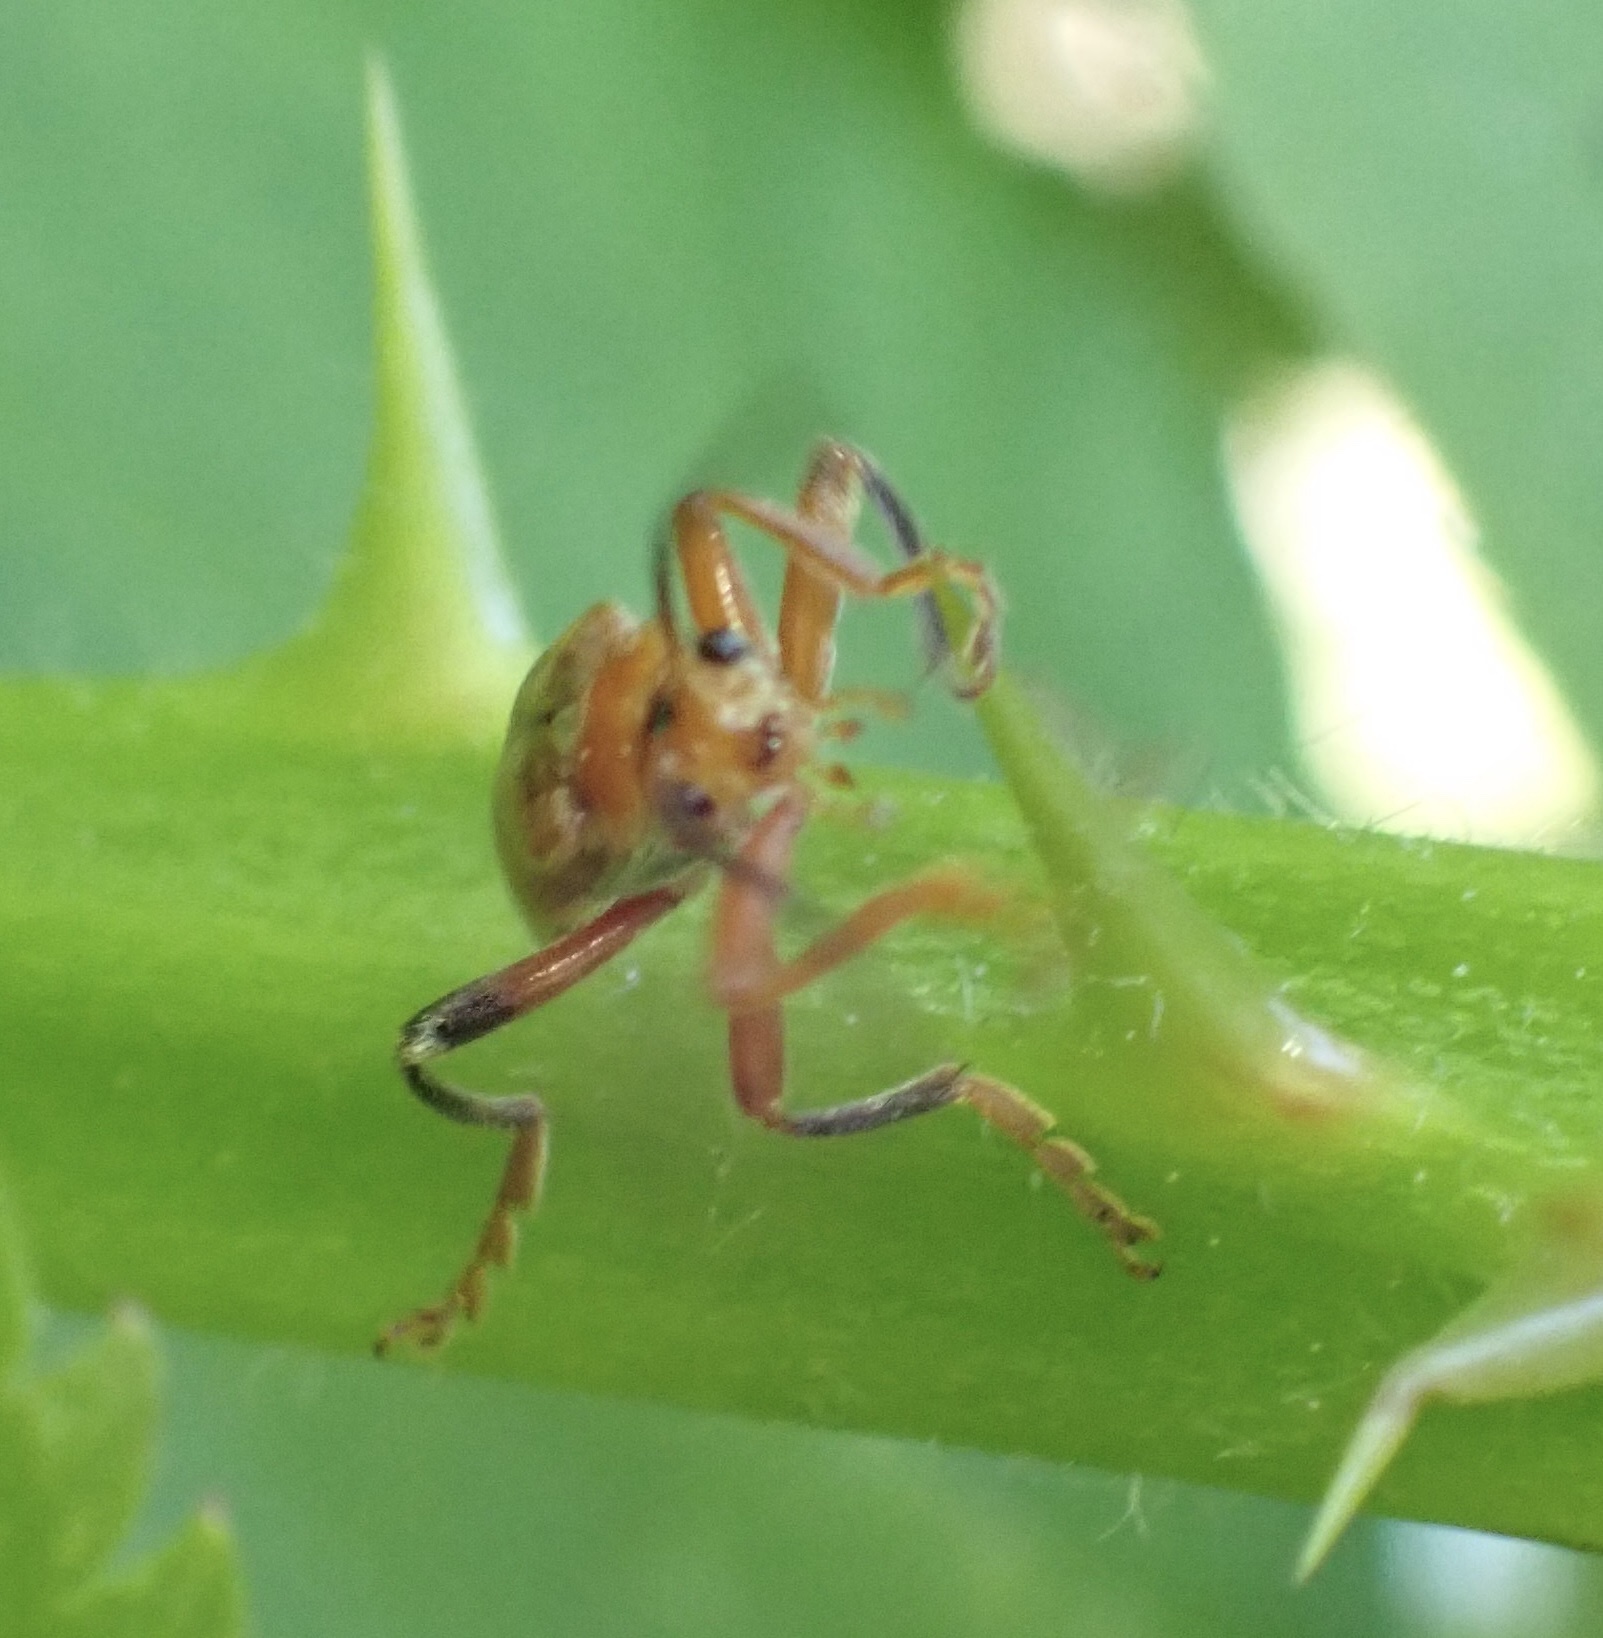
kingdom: Animalia
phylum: Arthropoda
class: Insecta
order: Coleoptera
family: Cantharidae
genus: Cantharis
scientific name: Cantharis livida
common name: Livid soldier beetle
